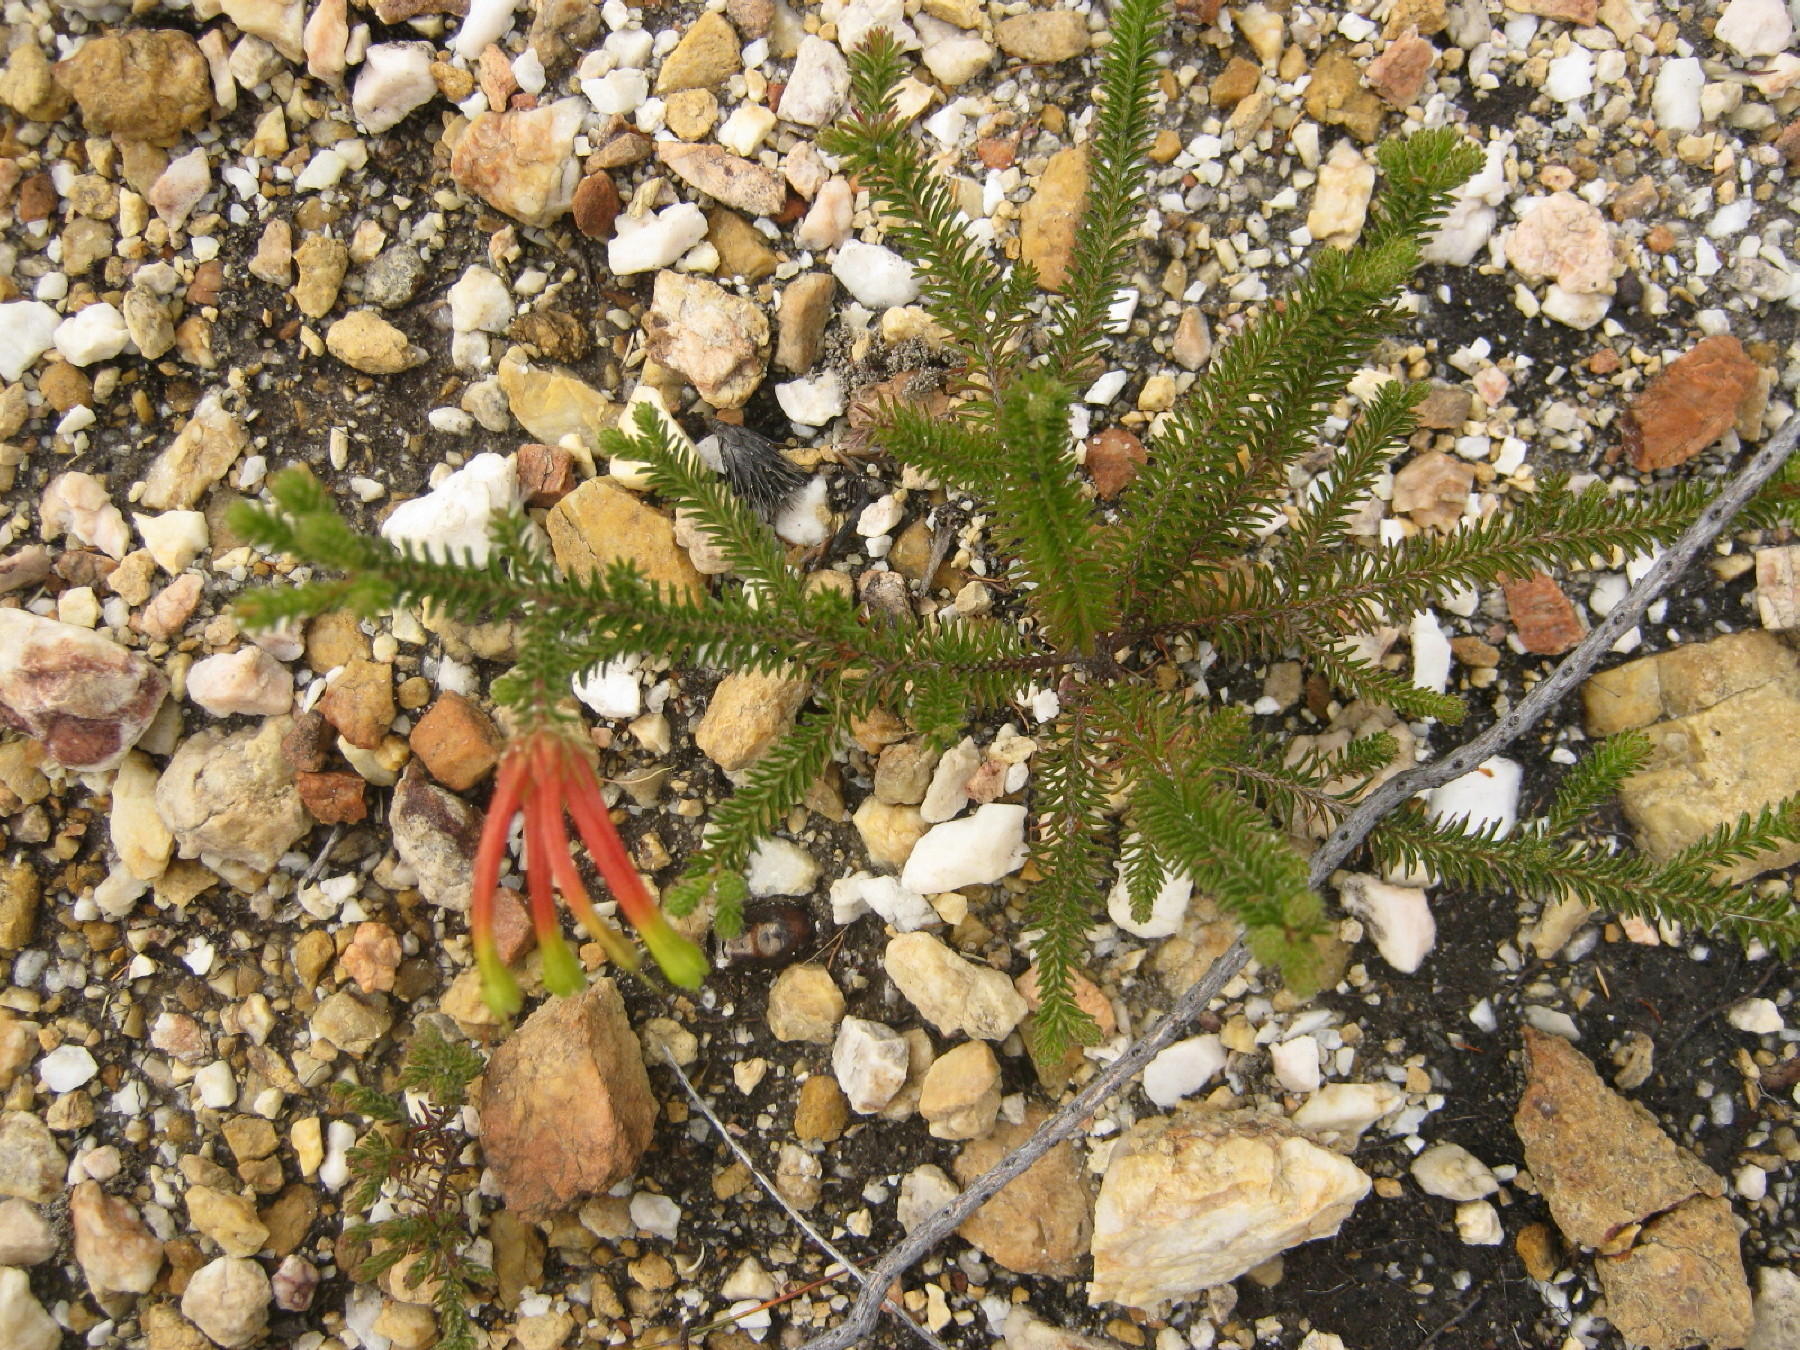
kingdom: Plantae
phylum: Tracheophyta
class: Magnoliopsida
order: Ericales
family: Ericaceae
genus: Erica
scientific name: Erica croceovirens
